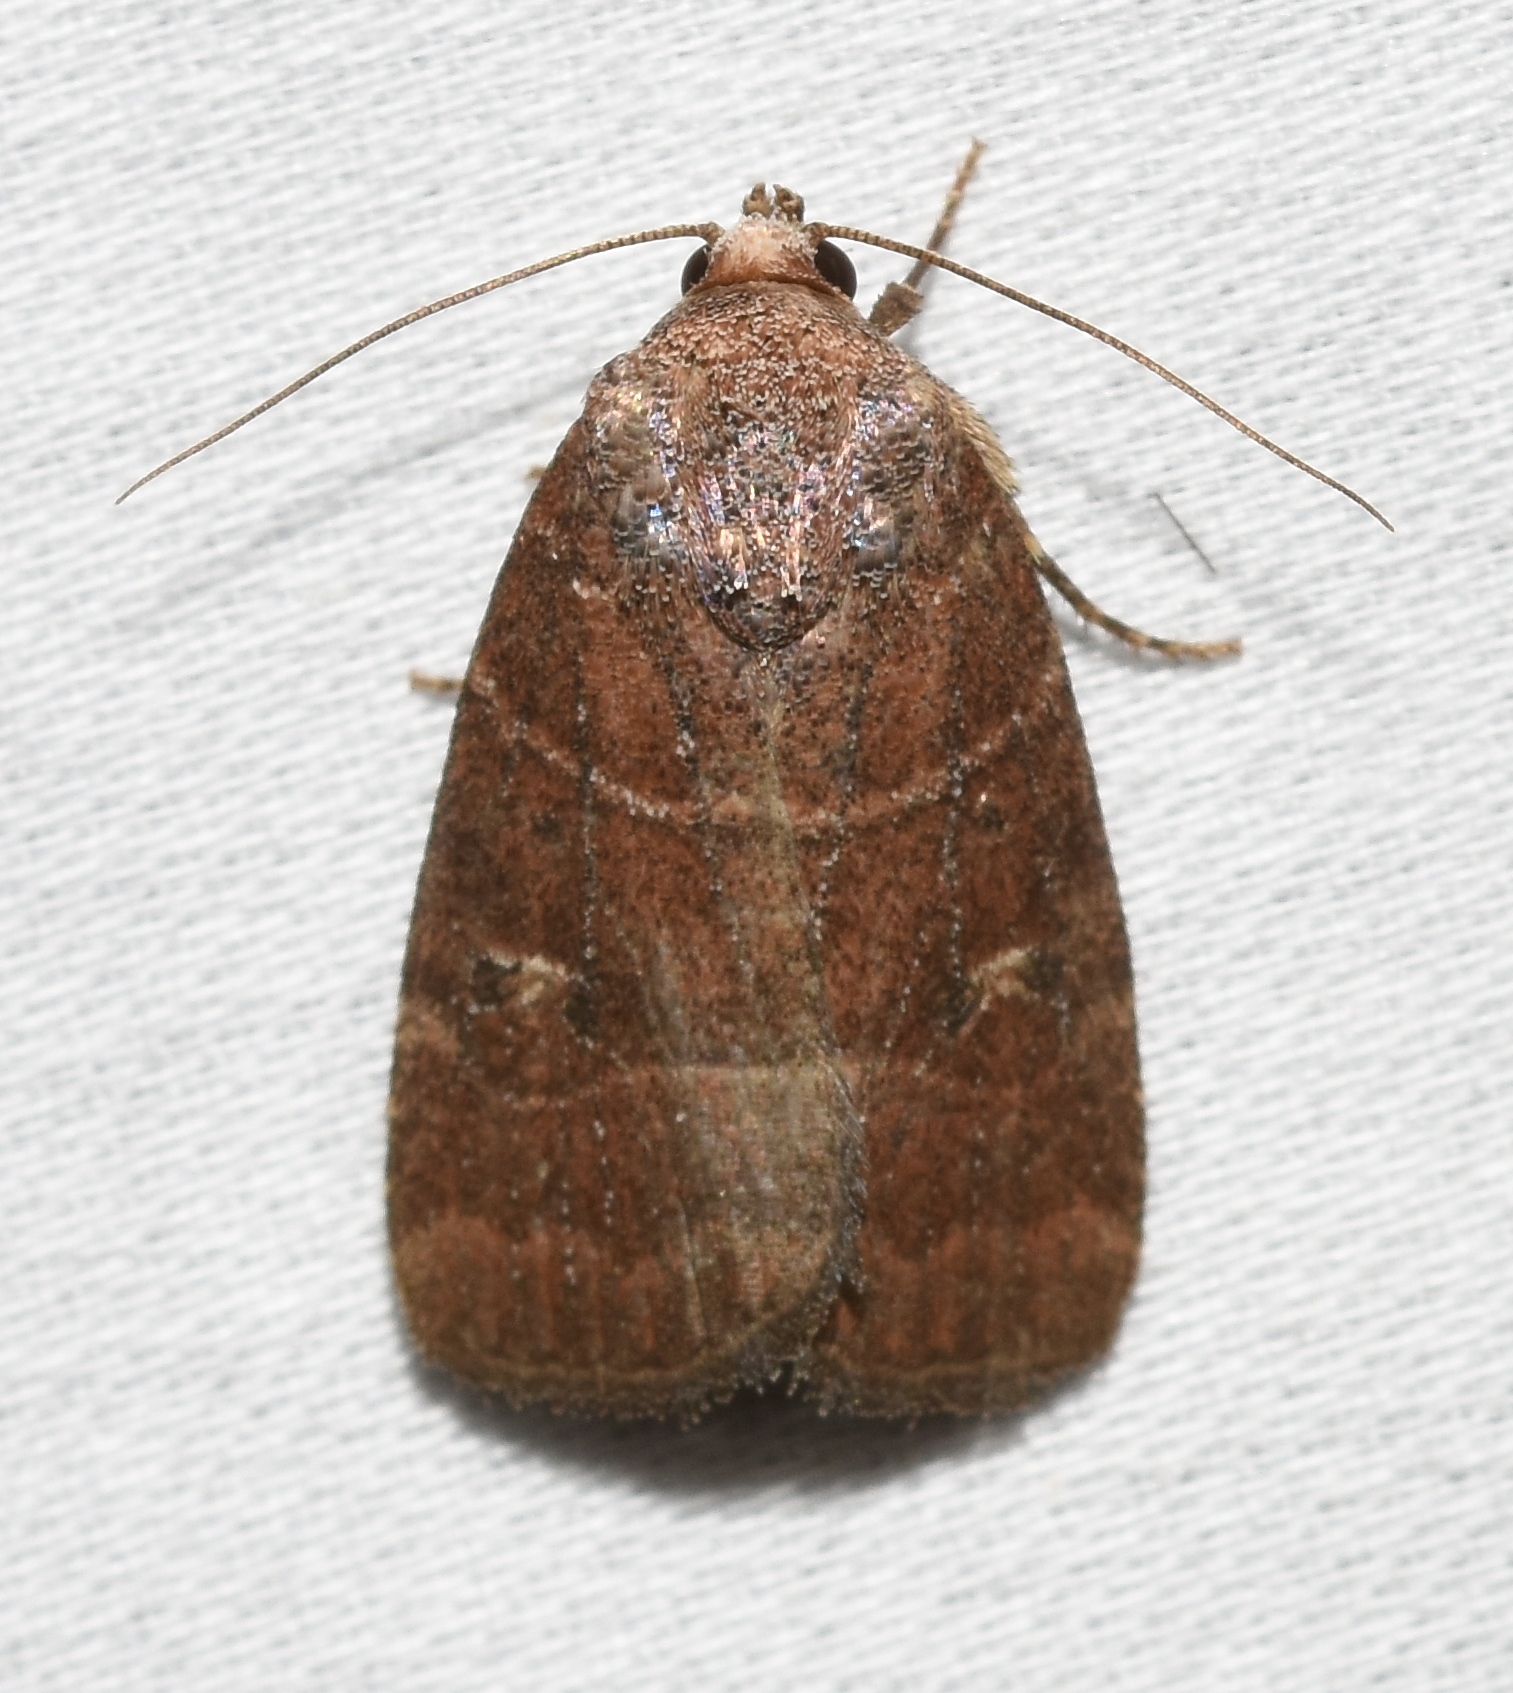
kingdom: Animalia
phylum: Arthropoda
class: Insecta
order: Lepidoptera
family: Noctuidae
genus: Elaphria
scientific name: Elaphria grata
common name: Grateful midget moth
